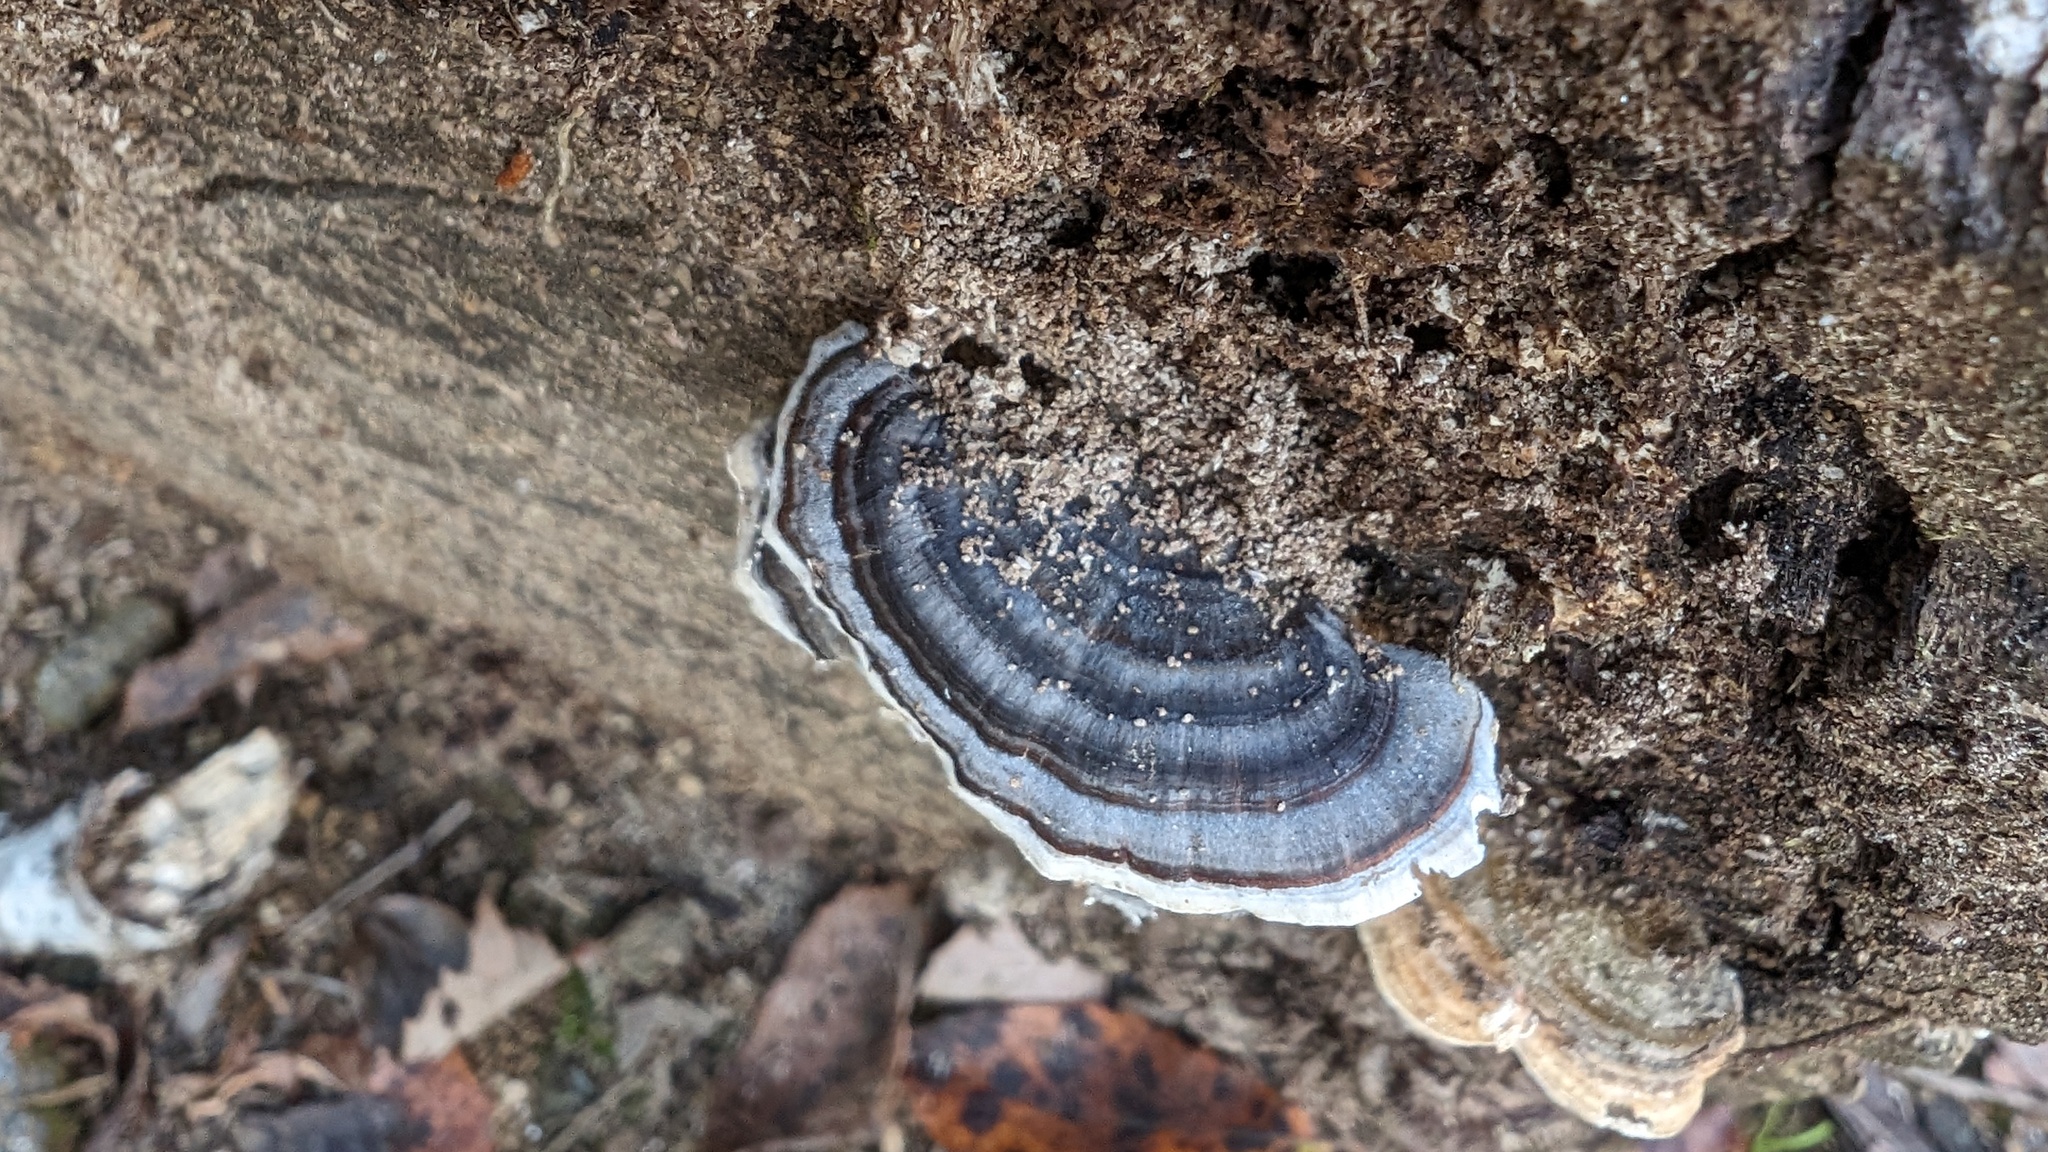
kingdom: Fungi
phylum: Basidiomycota
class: Agaricomycetes
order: Polyporales
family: Polyporaceae
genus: Trametes
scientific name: Trametes versicolor
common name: Turkeytail
